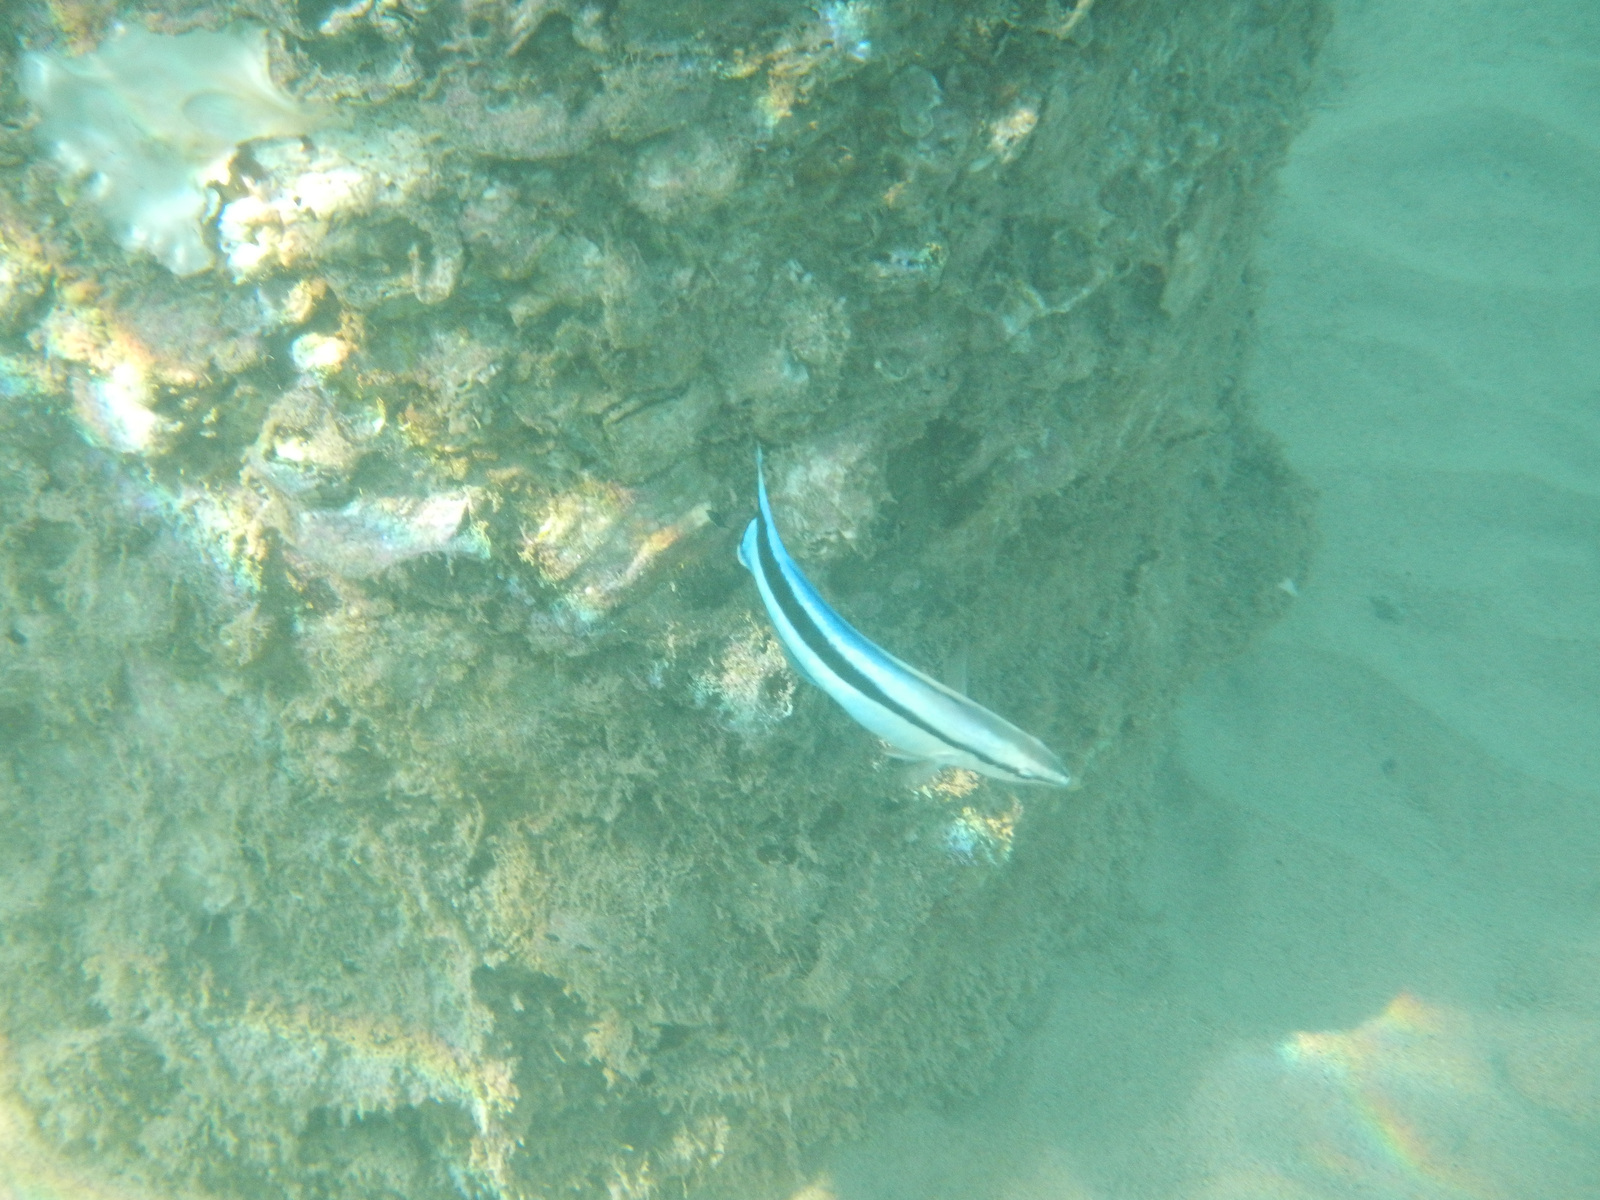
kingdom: Animalia
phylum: Chordata
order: Perciformes
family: Labridae
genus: Labroides
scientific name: Labroides dimidiatus
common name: Blue diesel wrasse
